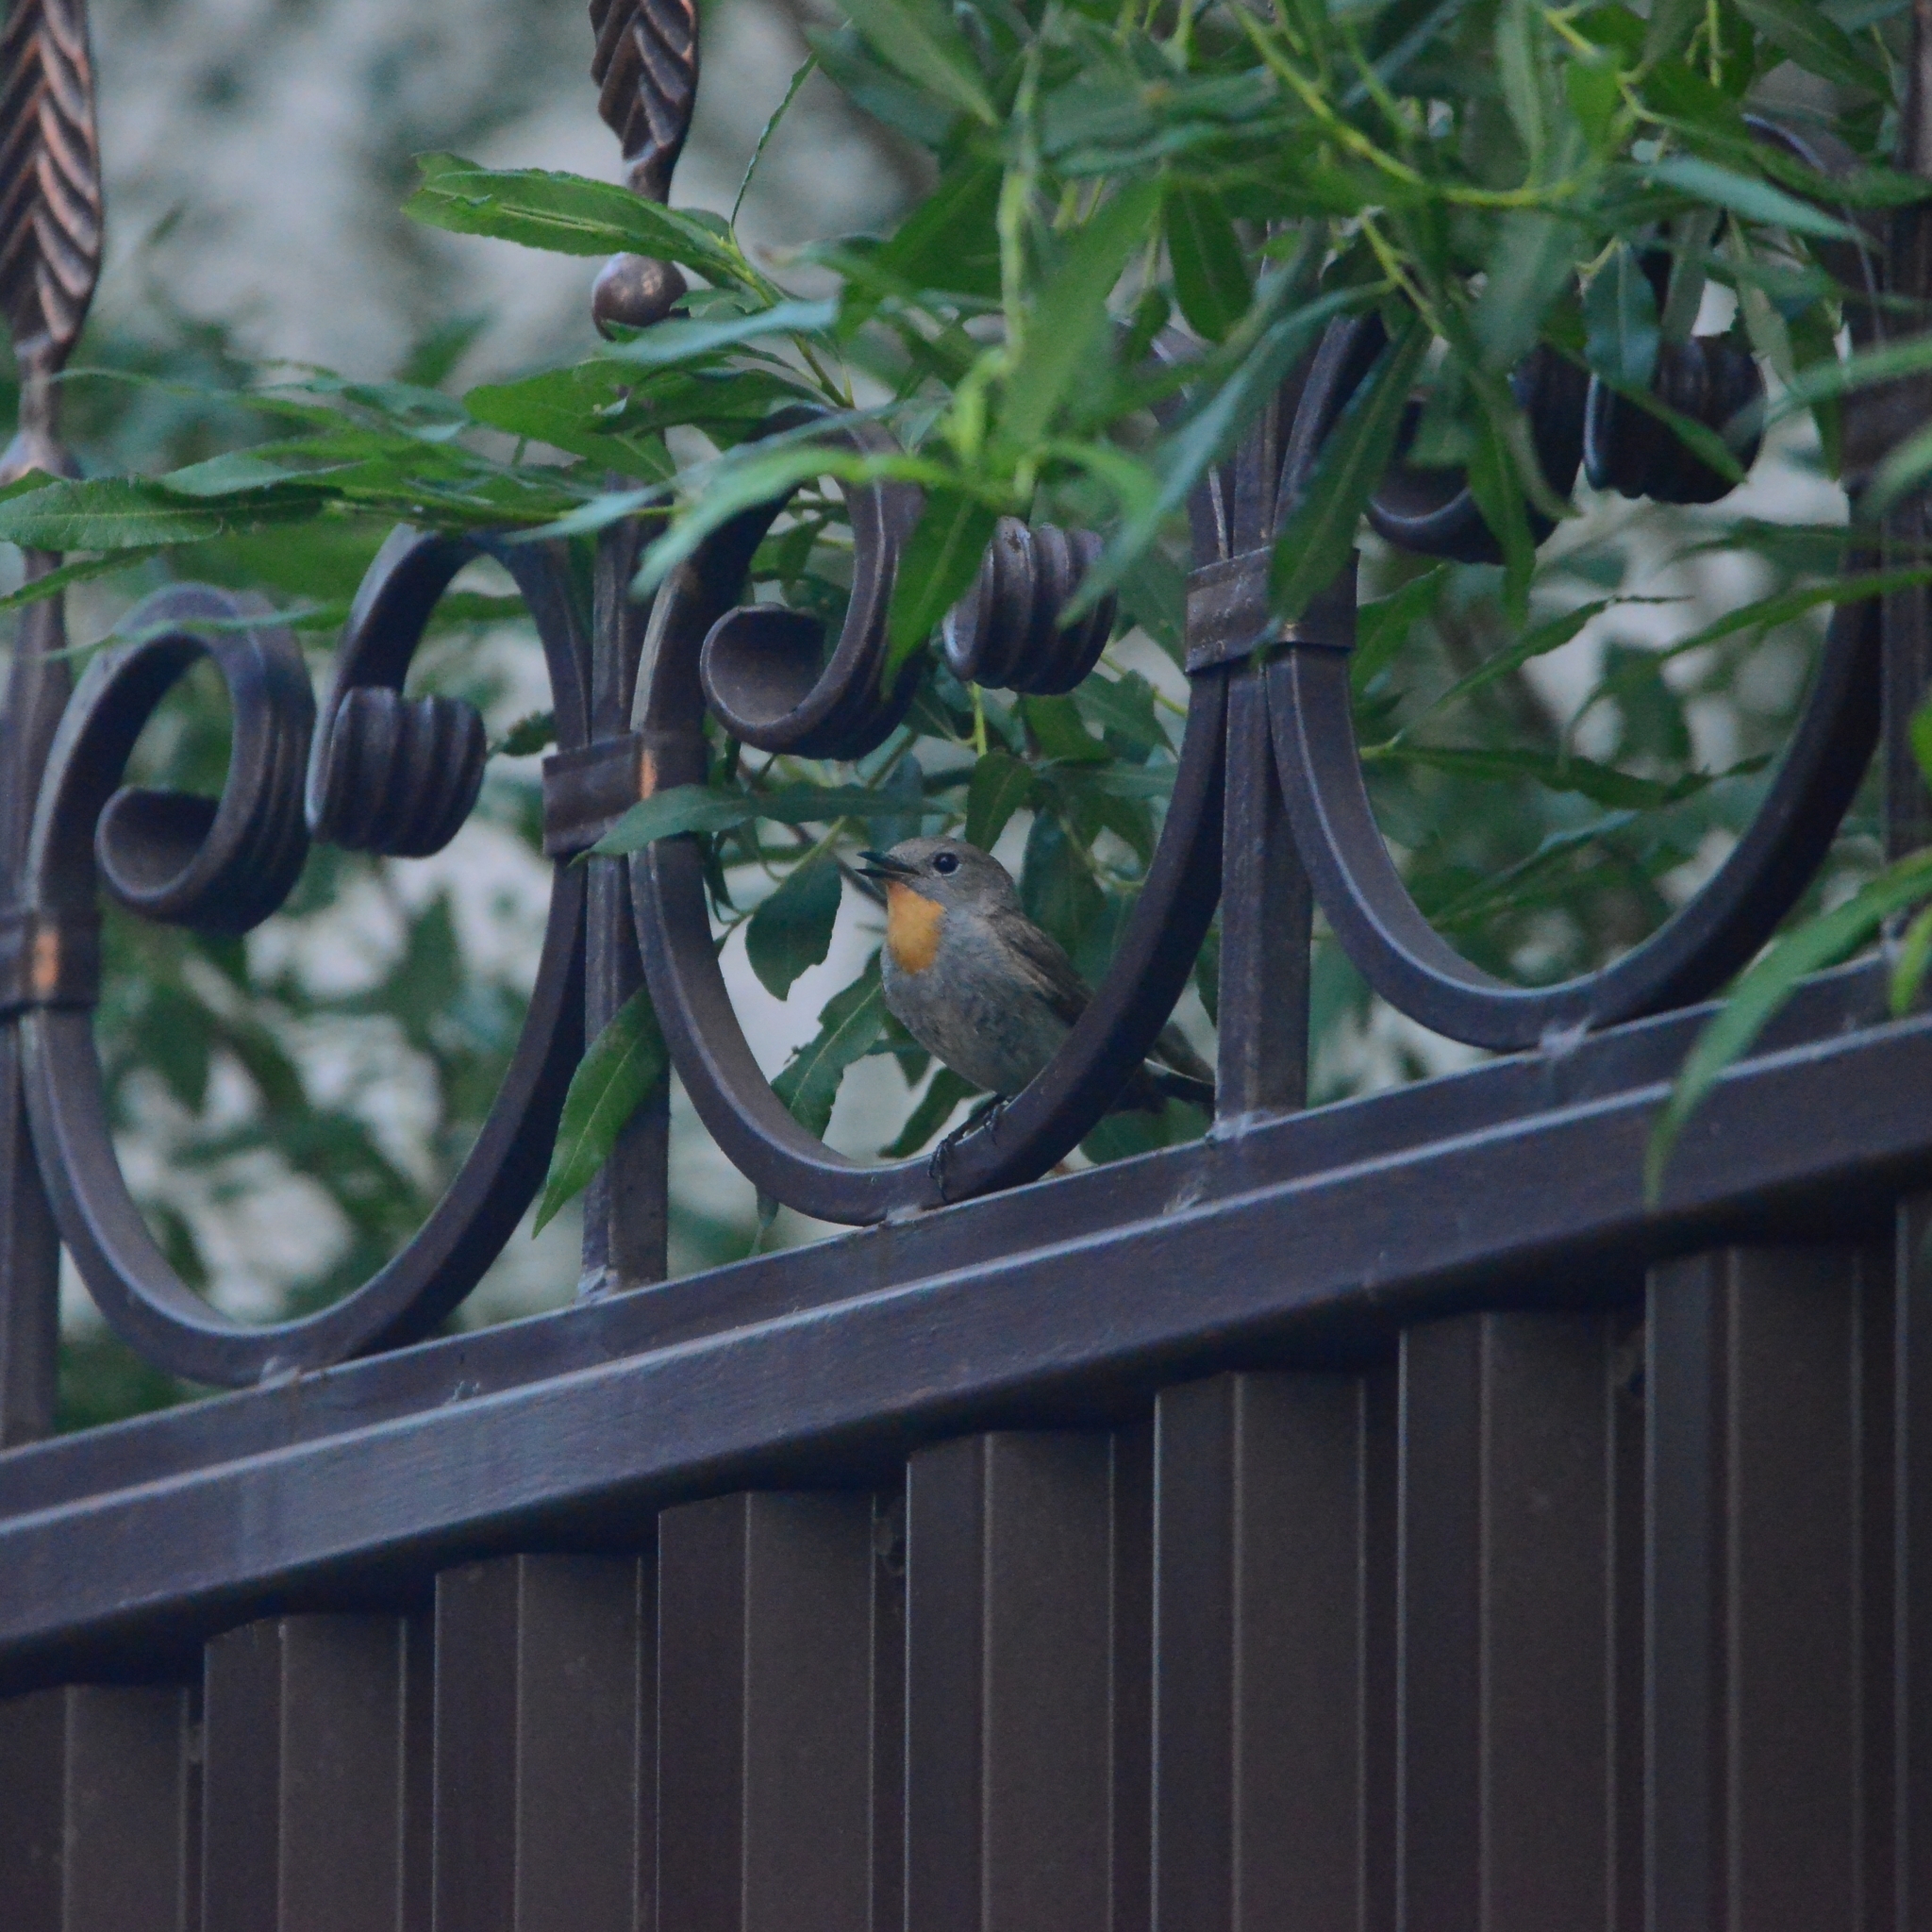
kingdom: Animalia
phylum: Chordata
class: Aves
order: Passeriformes
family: Muscicapidae
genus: Ficedula
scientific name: Ficedula albicilla
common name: Taiga flycatcher
